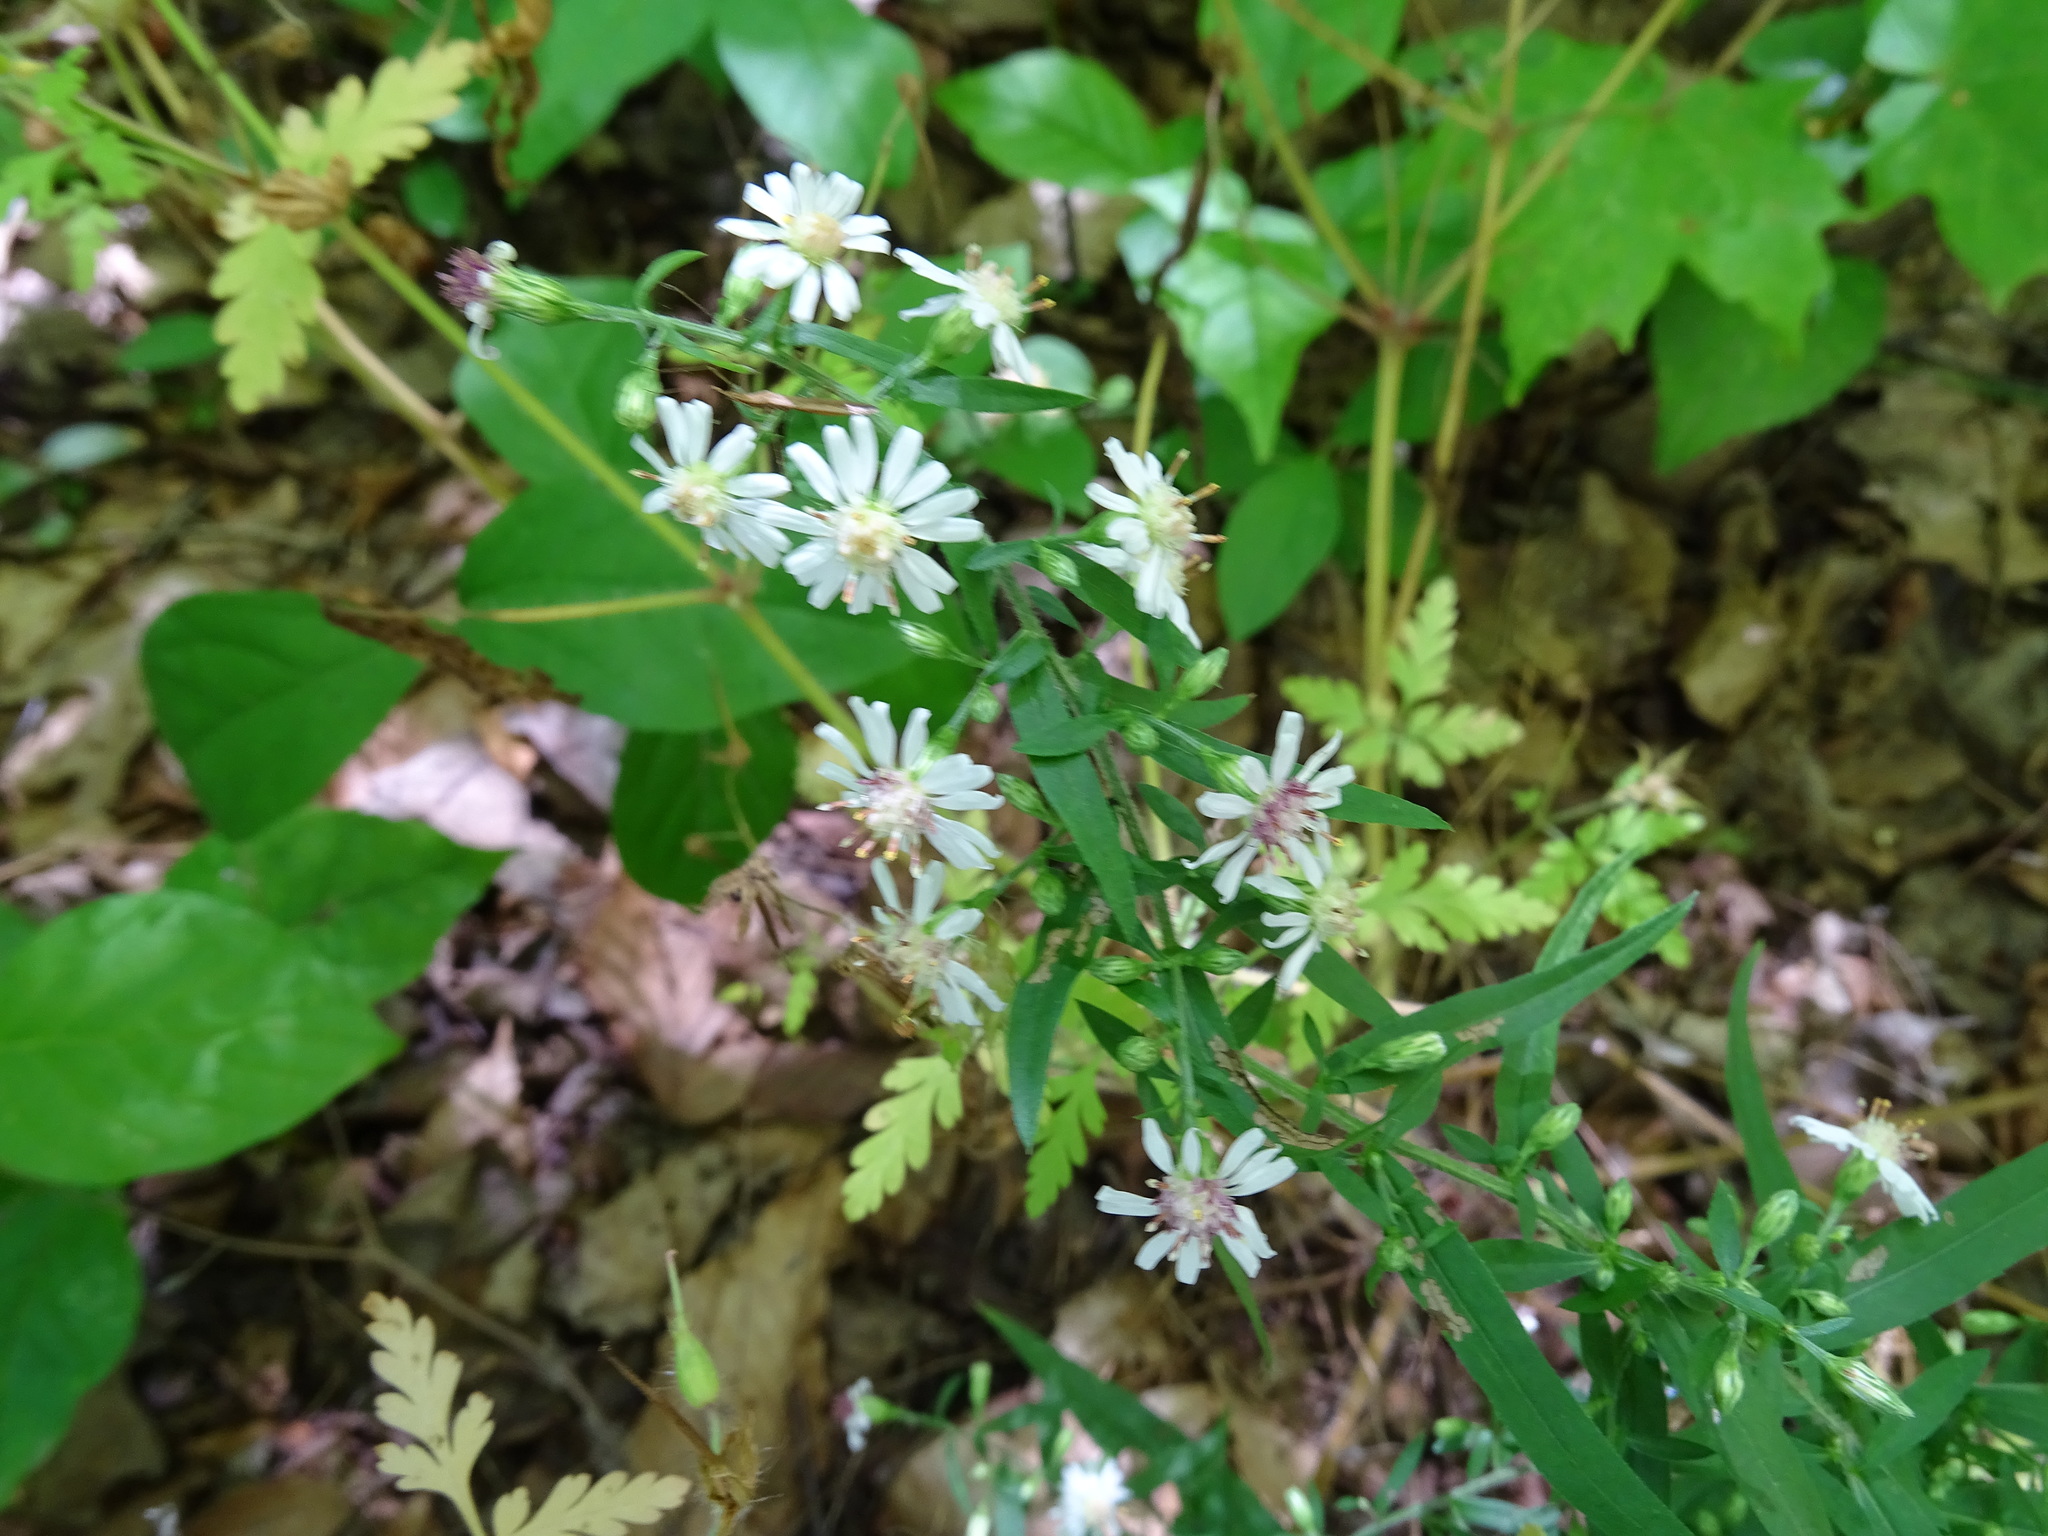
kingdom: Plantae
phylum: Tracheophyta
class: Magnoliopsida
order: Asterales
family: Asteraceae
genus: Symphyotrichum
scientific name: Symphyotrichum lateriflorum
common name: Calico aster
